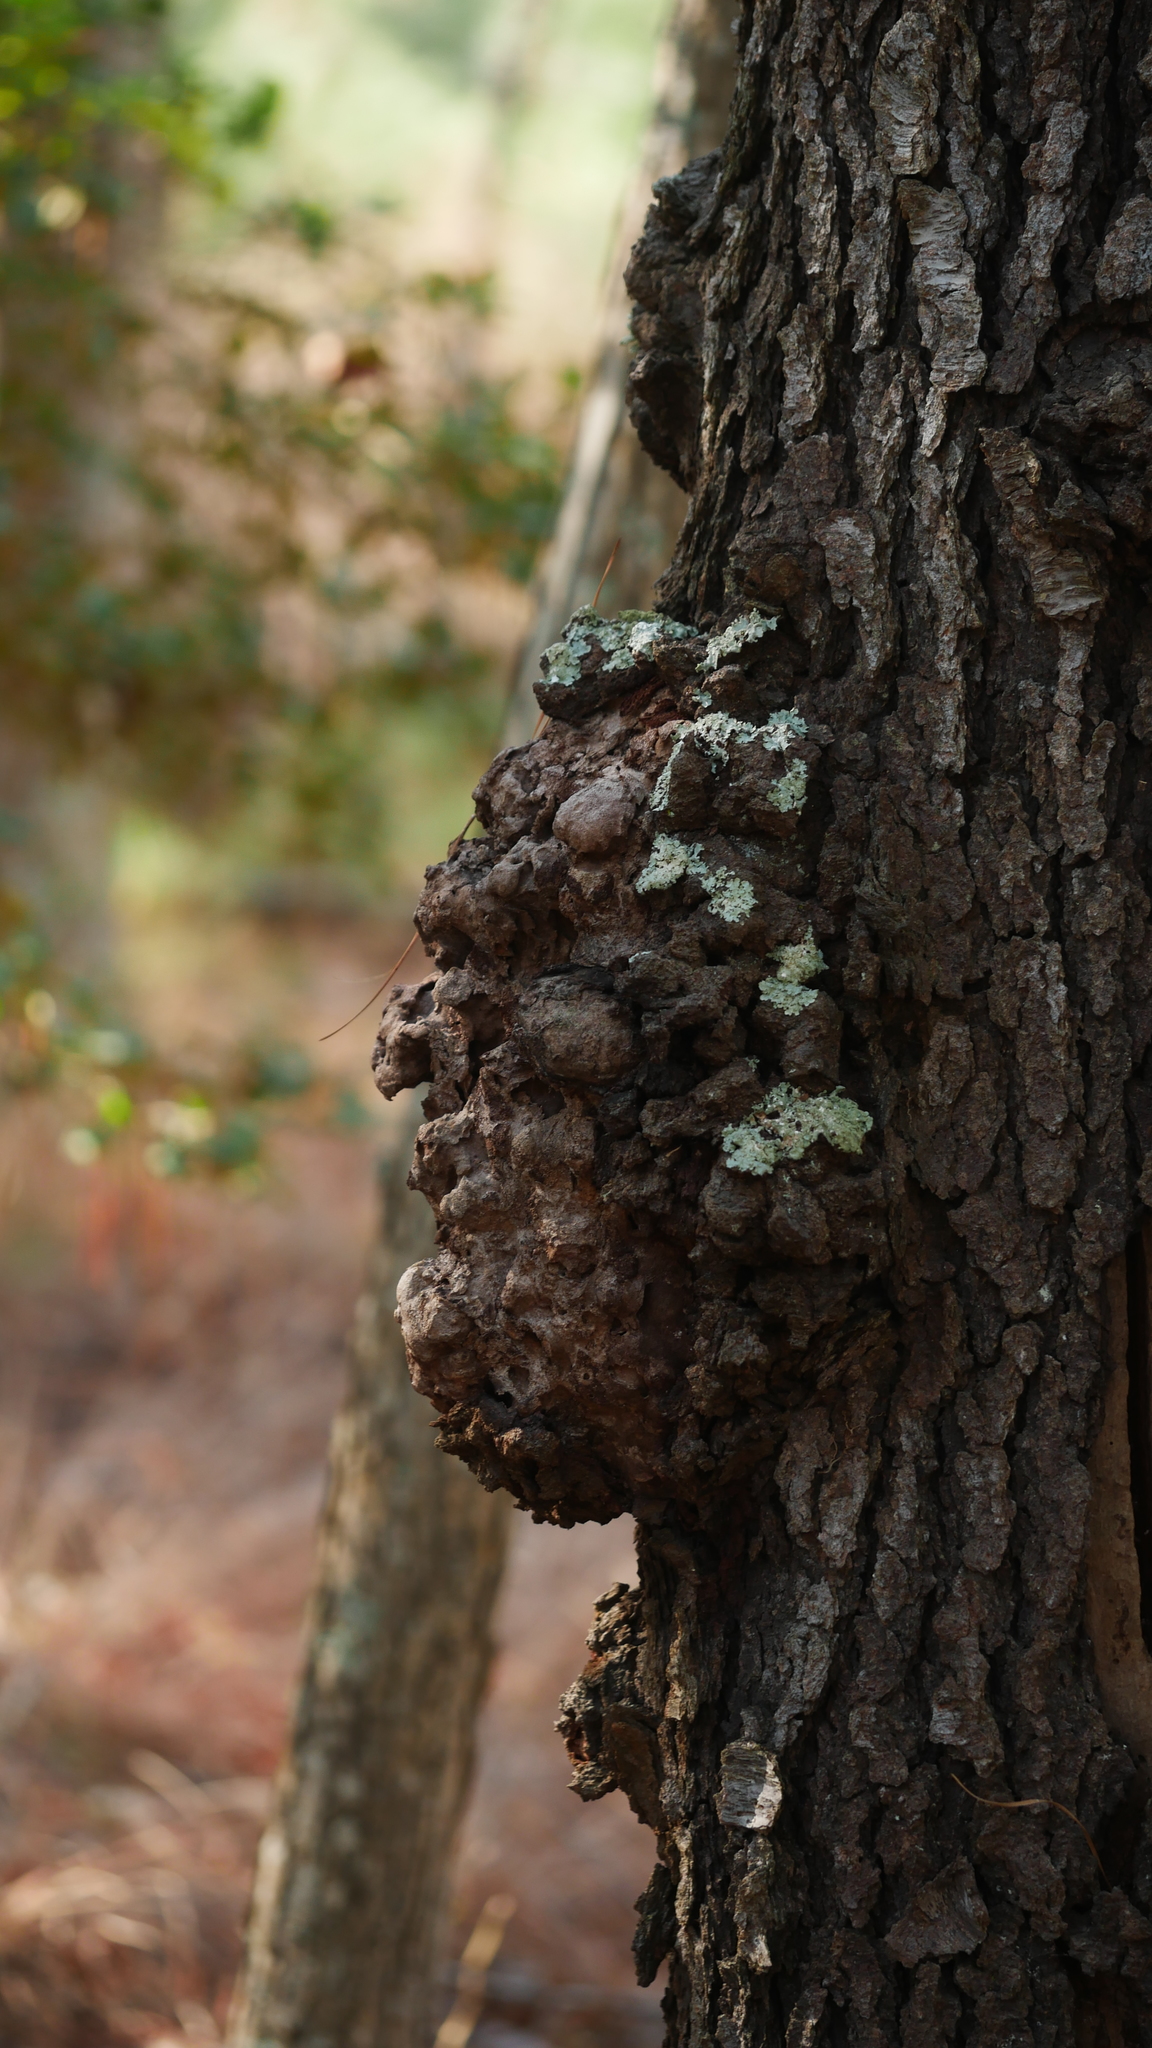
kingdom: Bacteria
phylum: Proteobacteria
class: Alphaproteobacteria
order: Rhizobiales
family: Rhizobiaceae
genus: Rhizobium
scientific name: Rhizobium Agrobacterium radiobacter
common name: Bacterial crown gall
